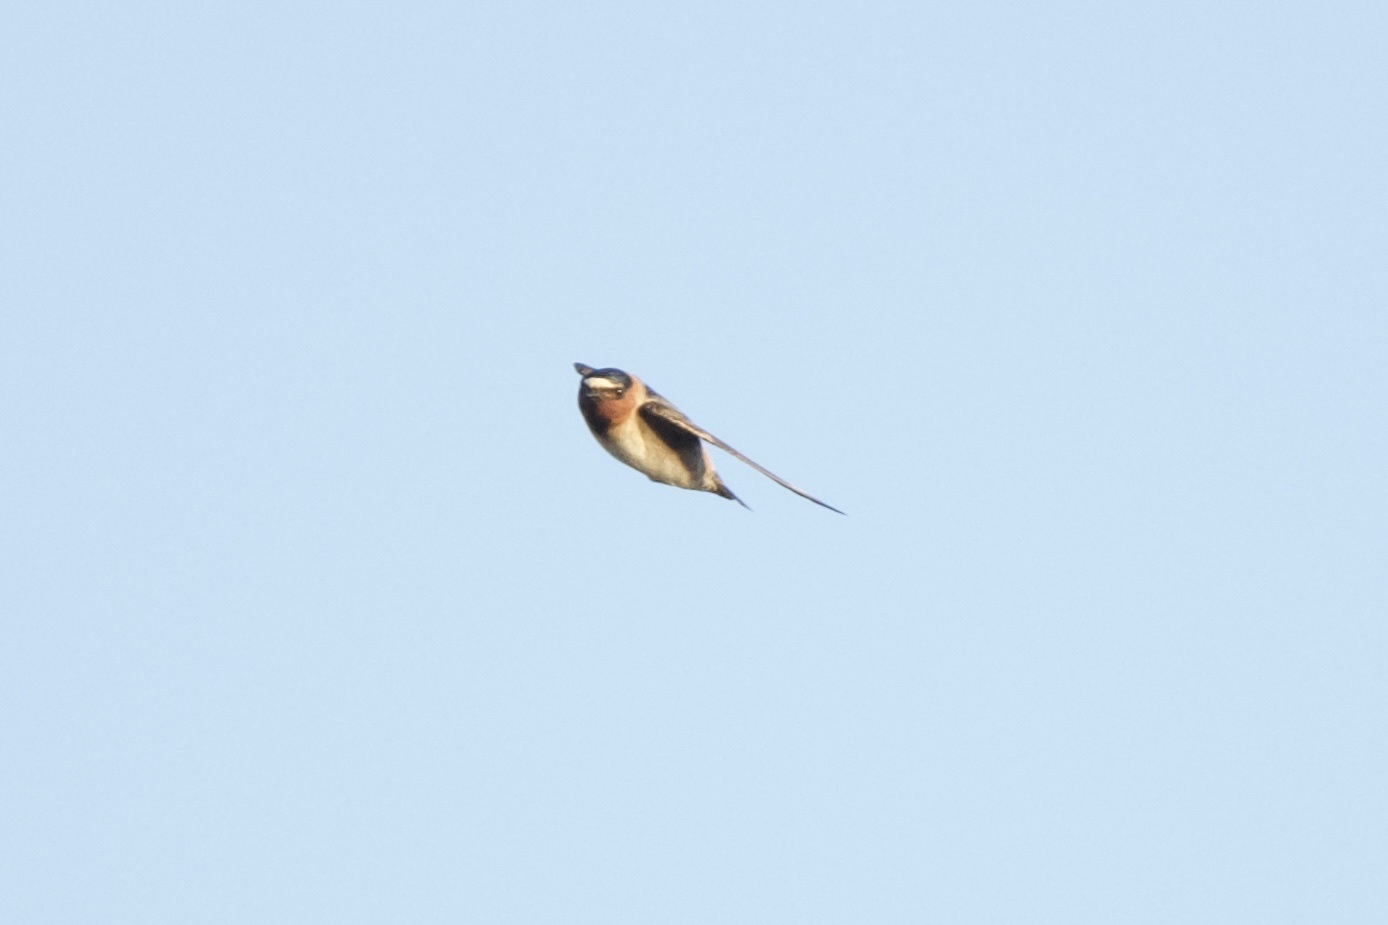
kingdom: Animalia
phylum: Chordata
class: Aves
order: Passeriformes
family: Hirundinidae
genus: Petrochelidon
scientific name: Petrochelidon pyrrhonota
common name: American cliff swallow
